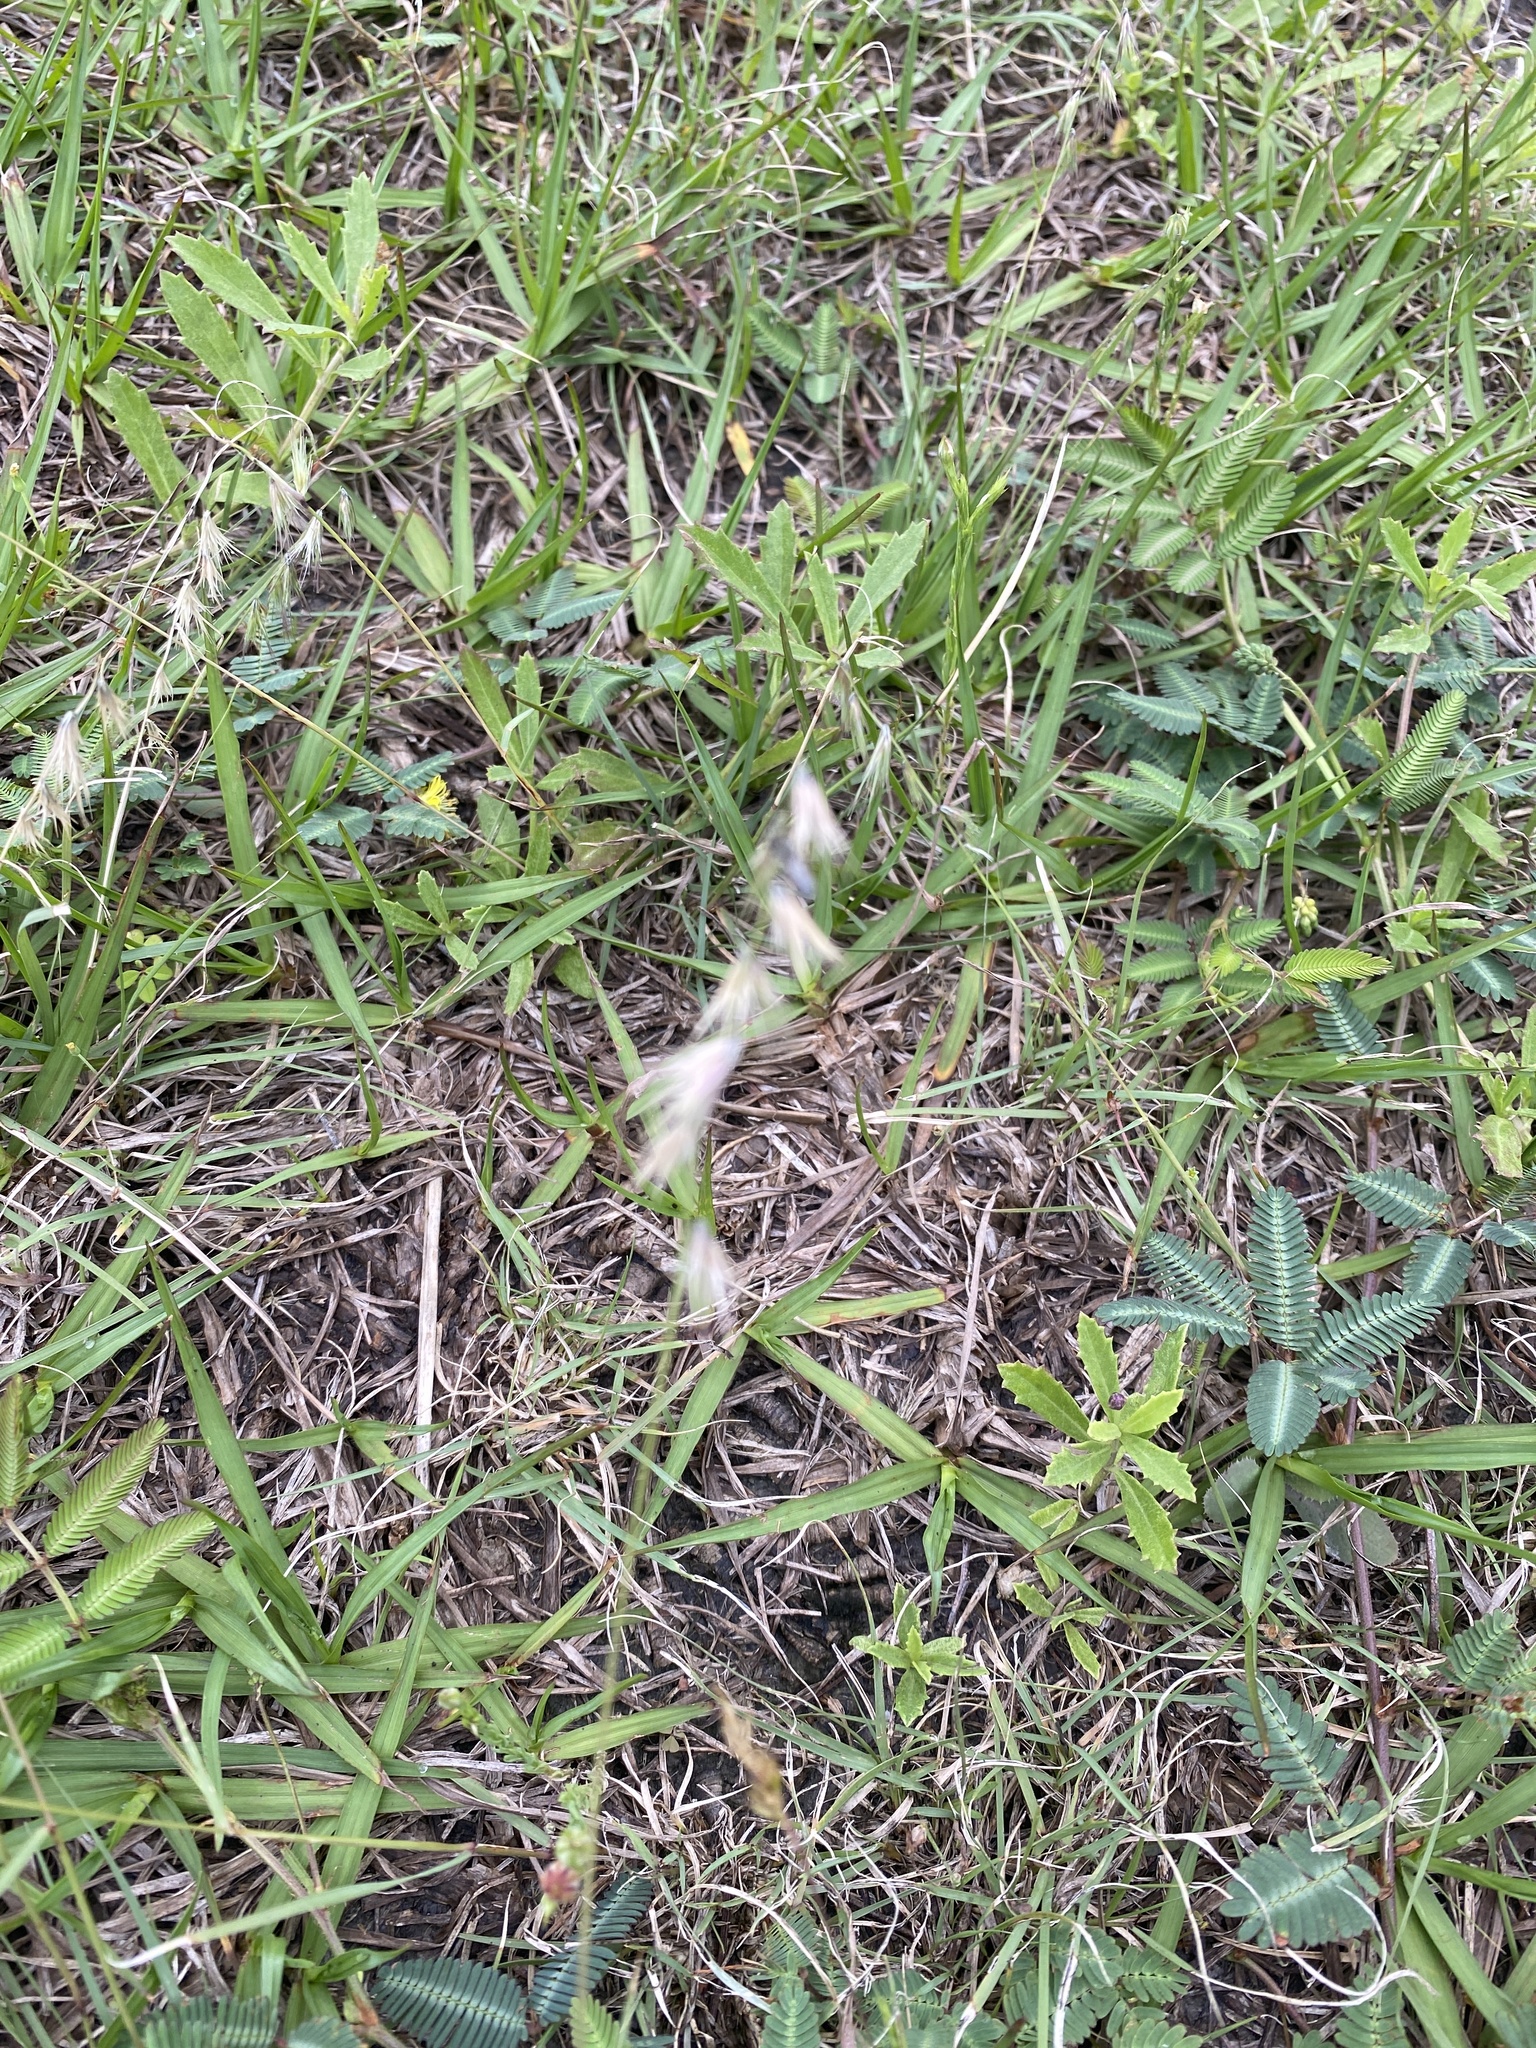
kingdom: Plantae
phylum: Tracheophyta
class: Liliopsida
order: Poales
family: Poaceae
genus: Bouteloua
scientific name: Bouteloua rigidiseta
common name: Texas grama
